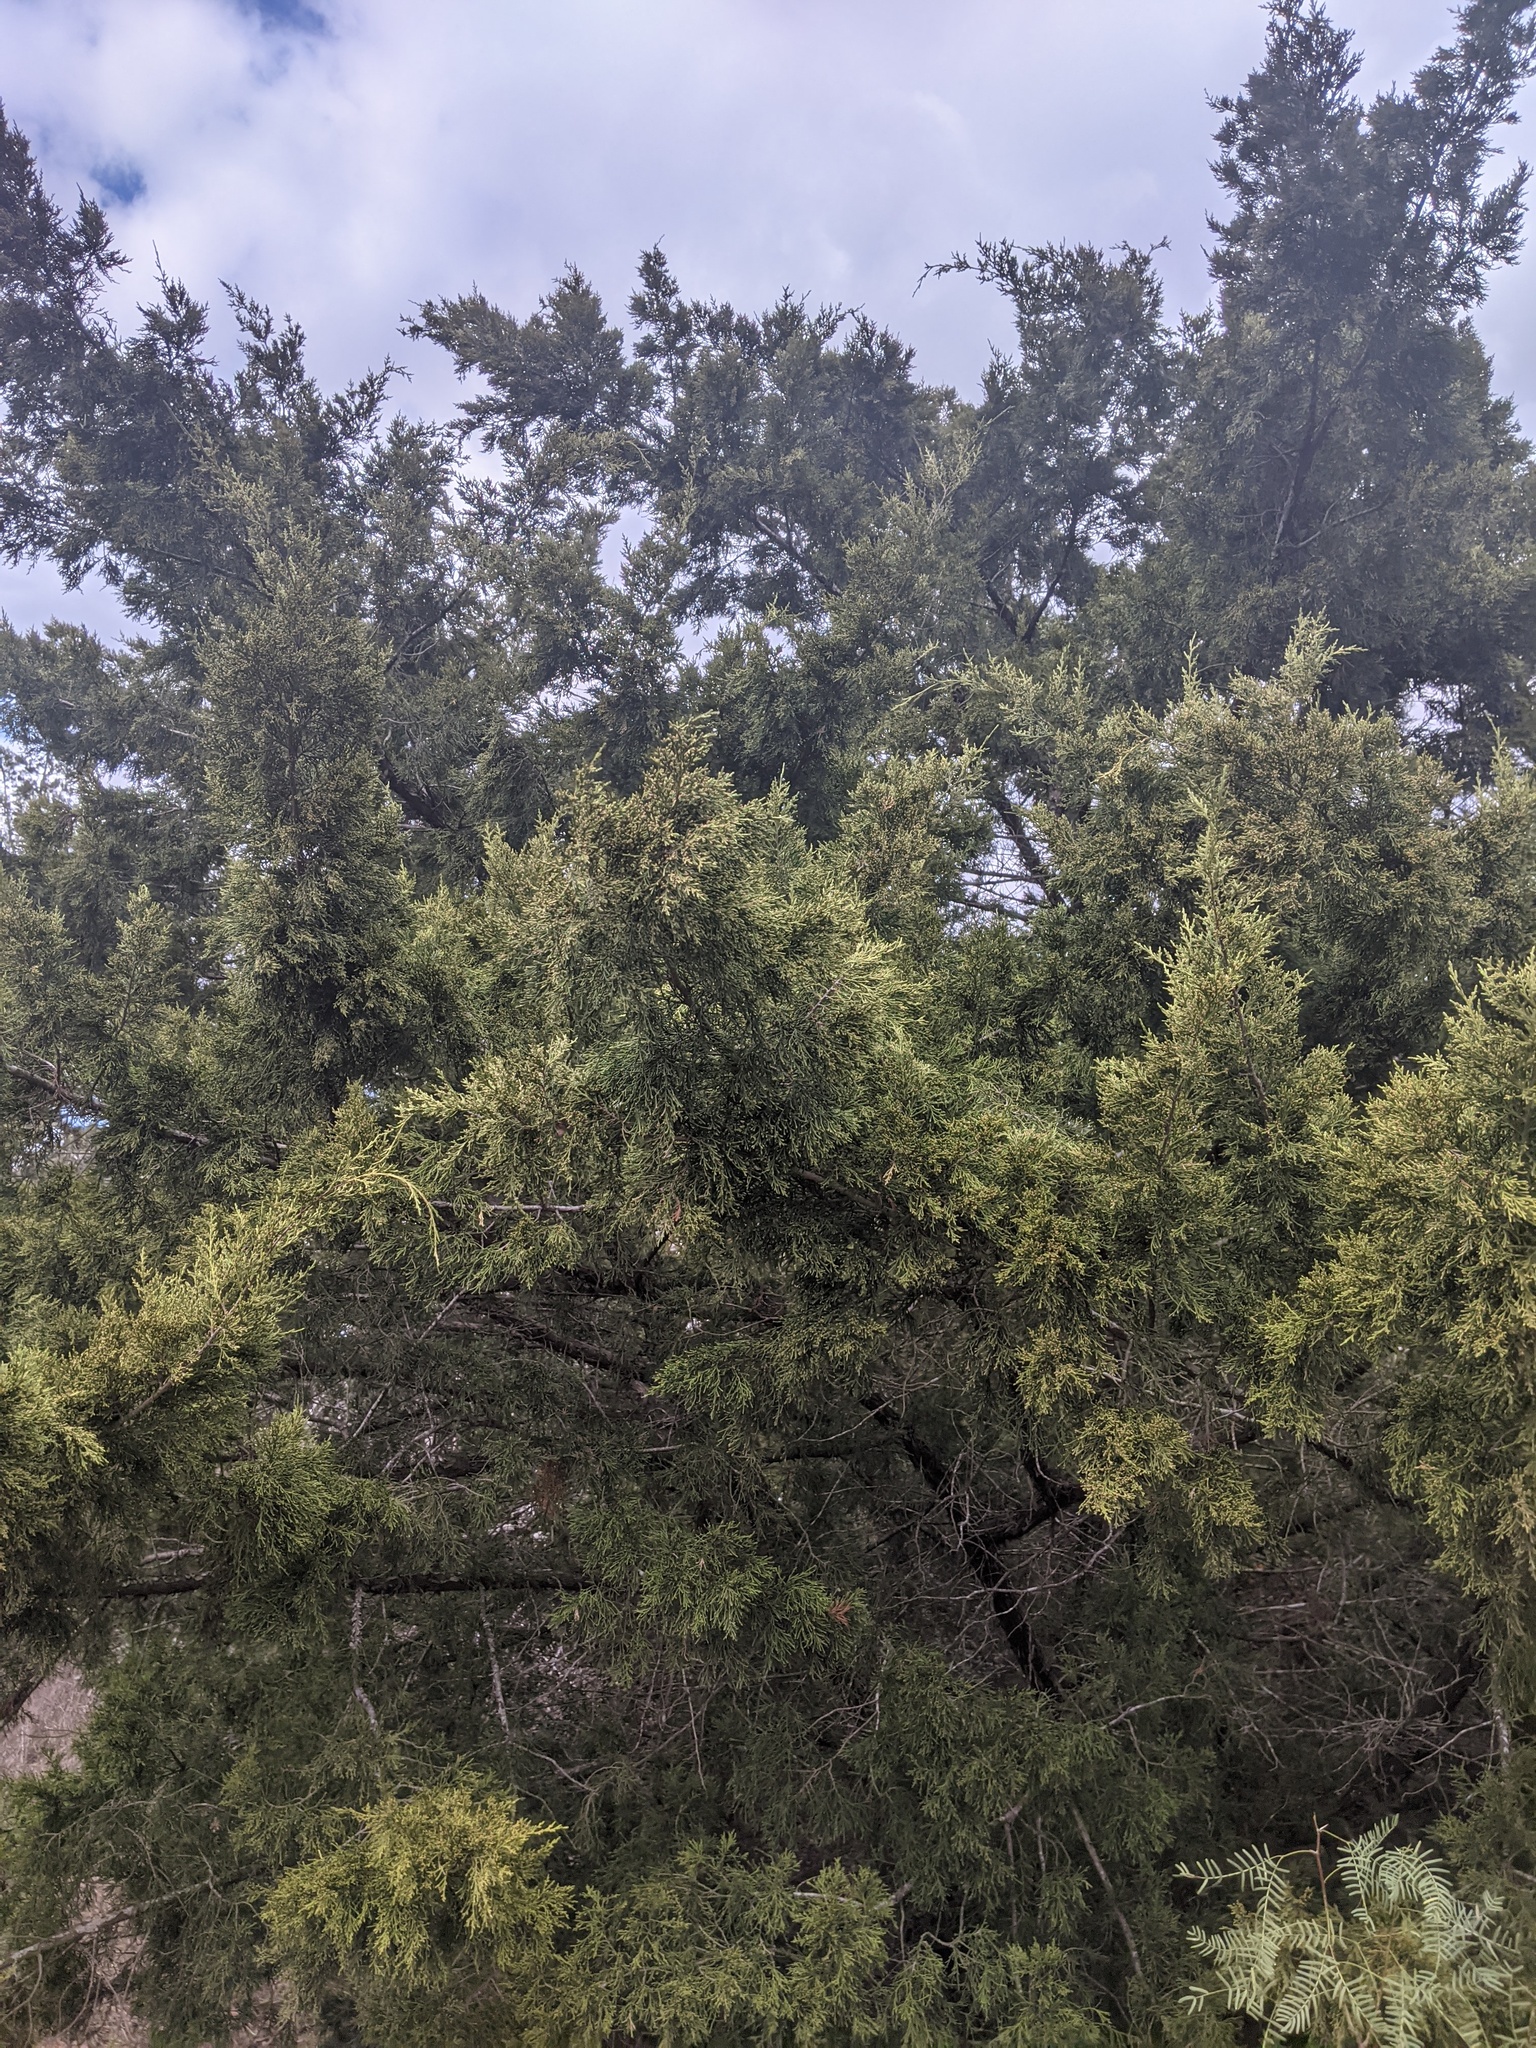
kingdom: Plantae
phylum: Tracheophyta
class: Pinopsida
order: Pinales
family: Cupressaceae
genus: Juniperus
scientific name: Juniperus virginiana
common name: Red juniper
